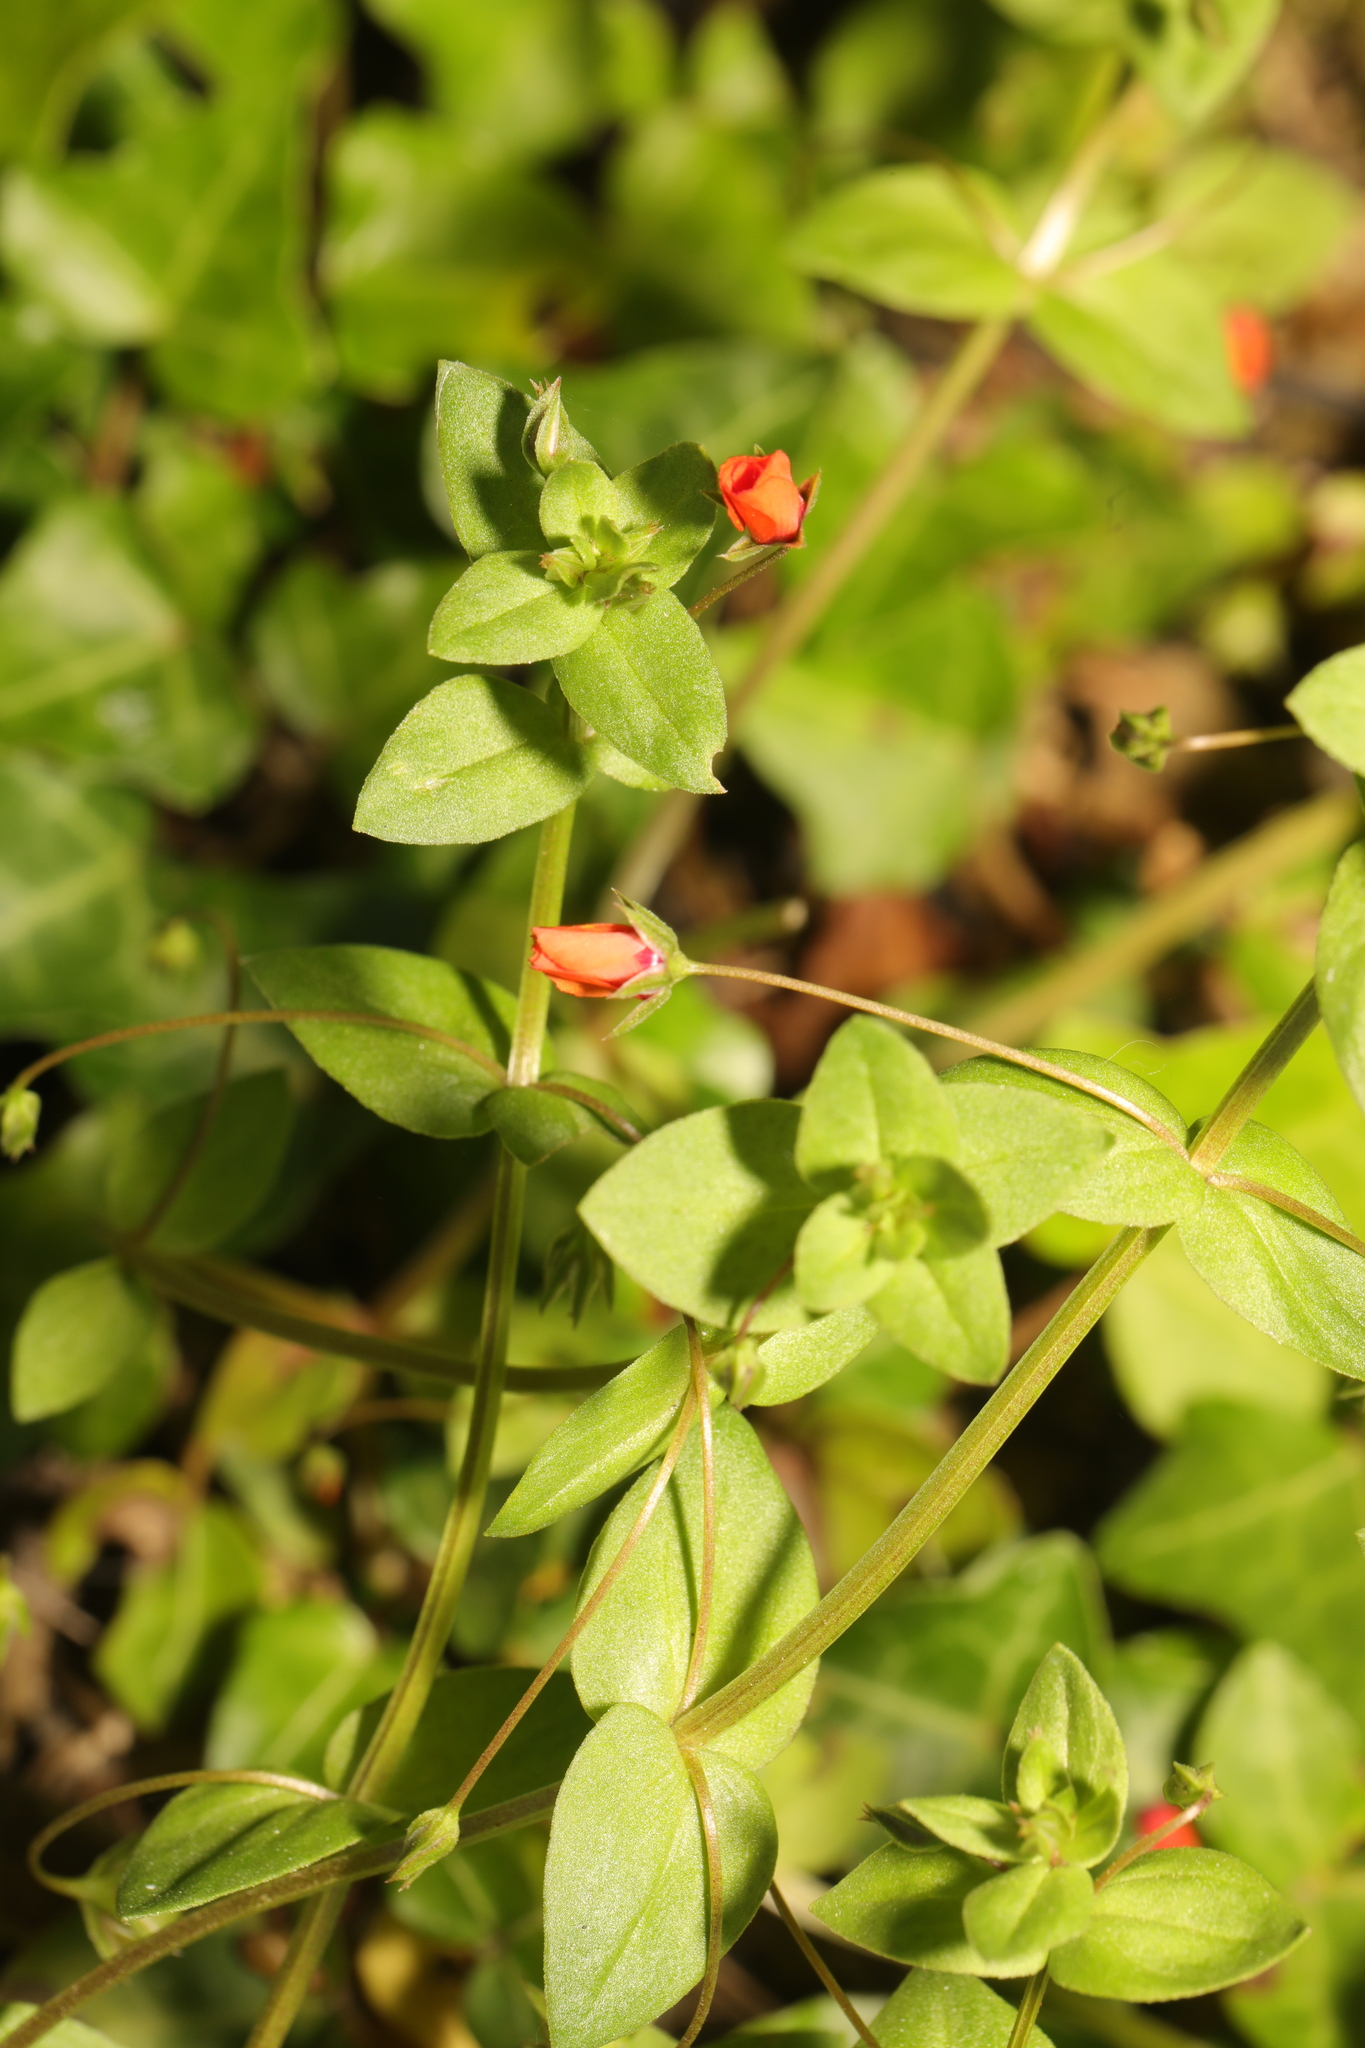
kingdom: Plantae
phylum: Tracheophyta
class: Magnoliopsida
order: Ericales
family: Primulaceae
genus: Lysimachia
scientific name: Lysimachia arvensis
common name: Scarlet pimpernel
